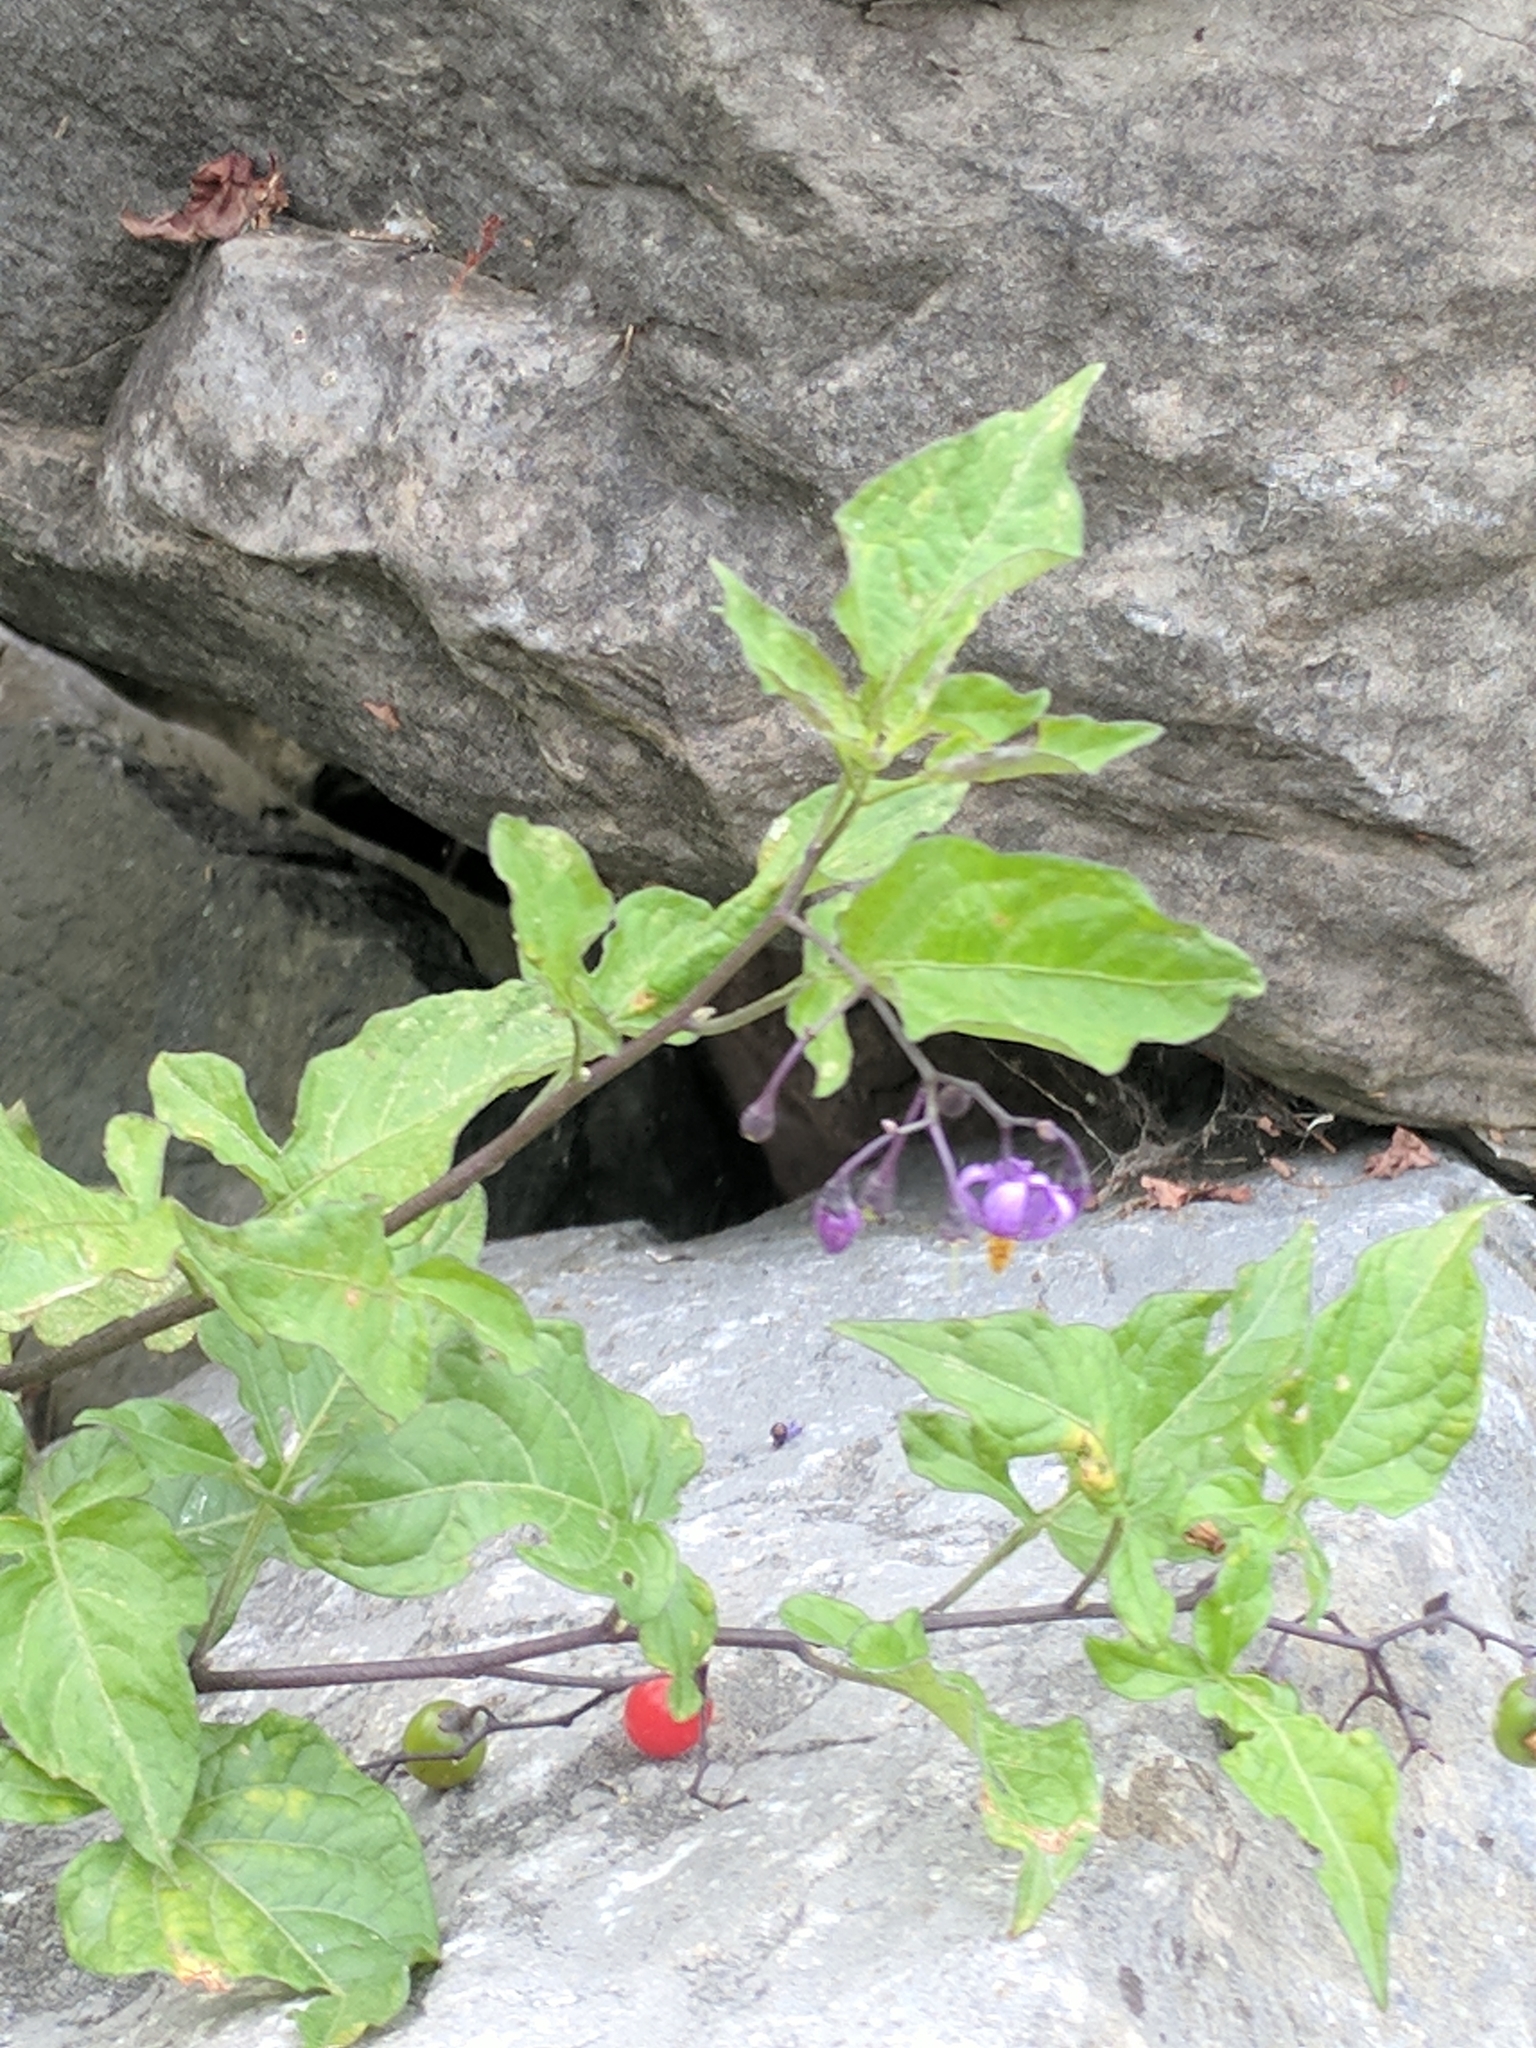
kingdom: Plantae
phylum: Tracheophyta
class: Magnoliopsida
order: Solanales
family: Solanaceae
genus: Solanum
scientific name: Solanum dulcamara
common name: Climbing nightshade
